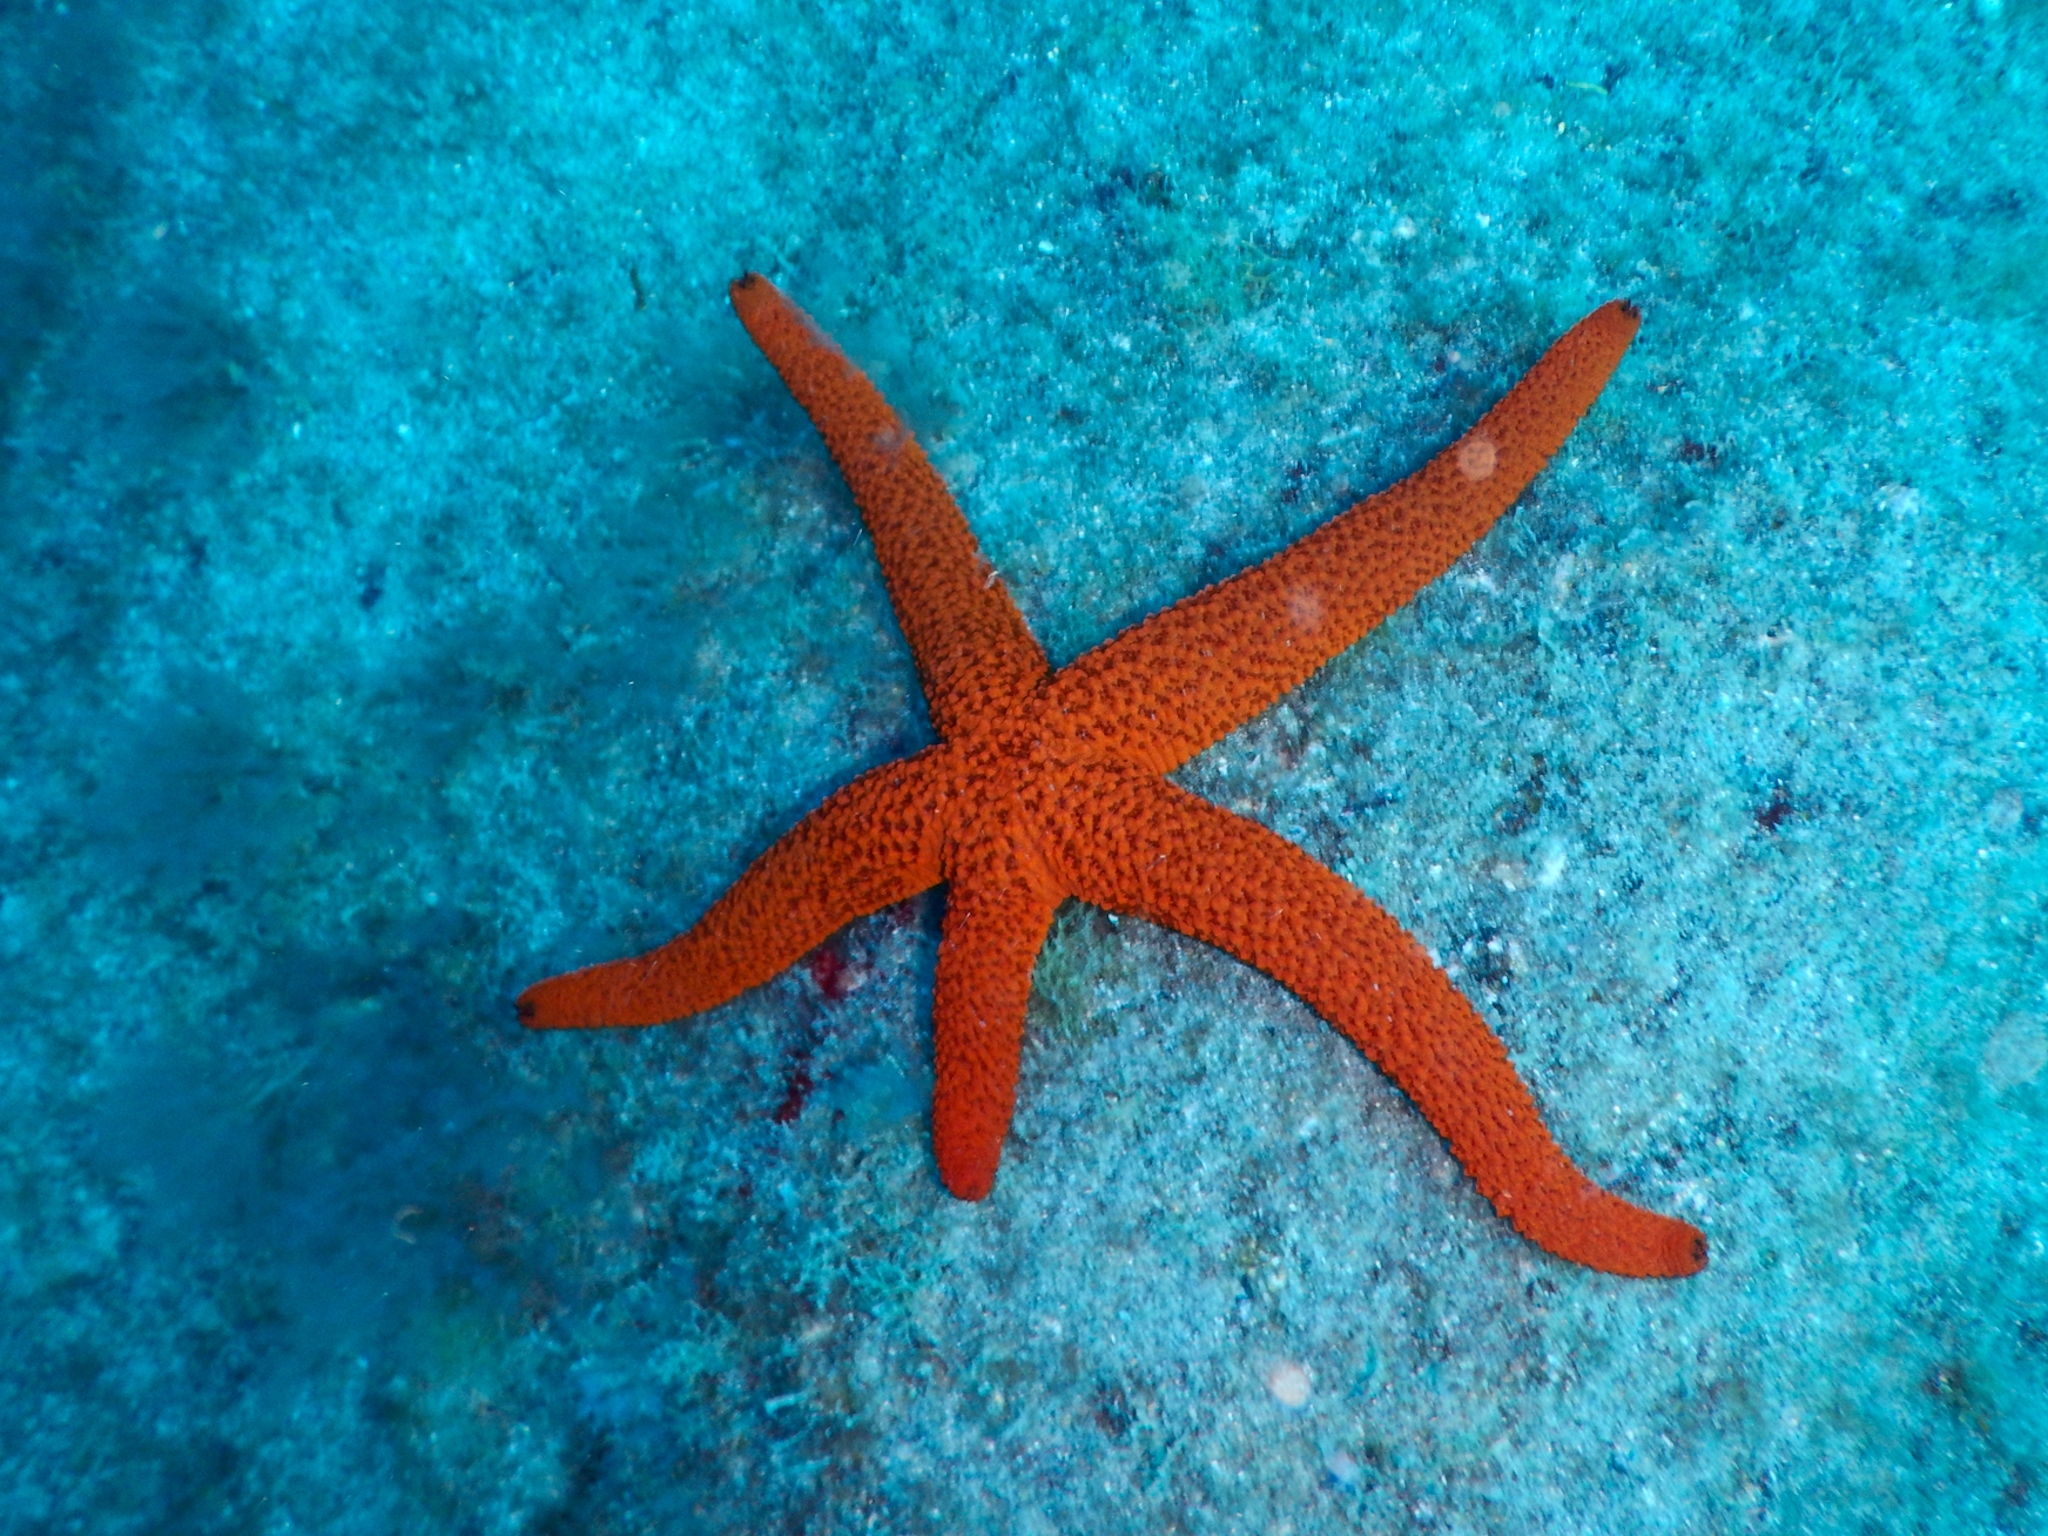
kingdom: Animalia
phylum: Echinodermata
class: Asteroidea
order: Spinulosida
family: Echinasteridae
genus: Echinaster
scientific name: Echinaster sepositus
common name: Red starfish
